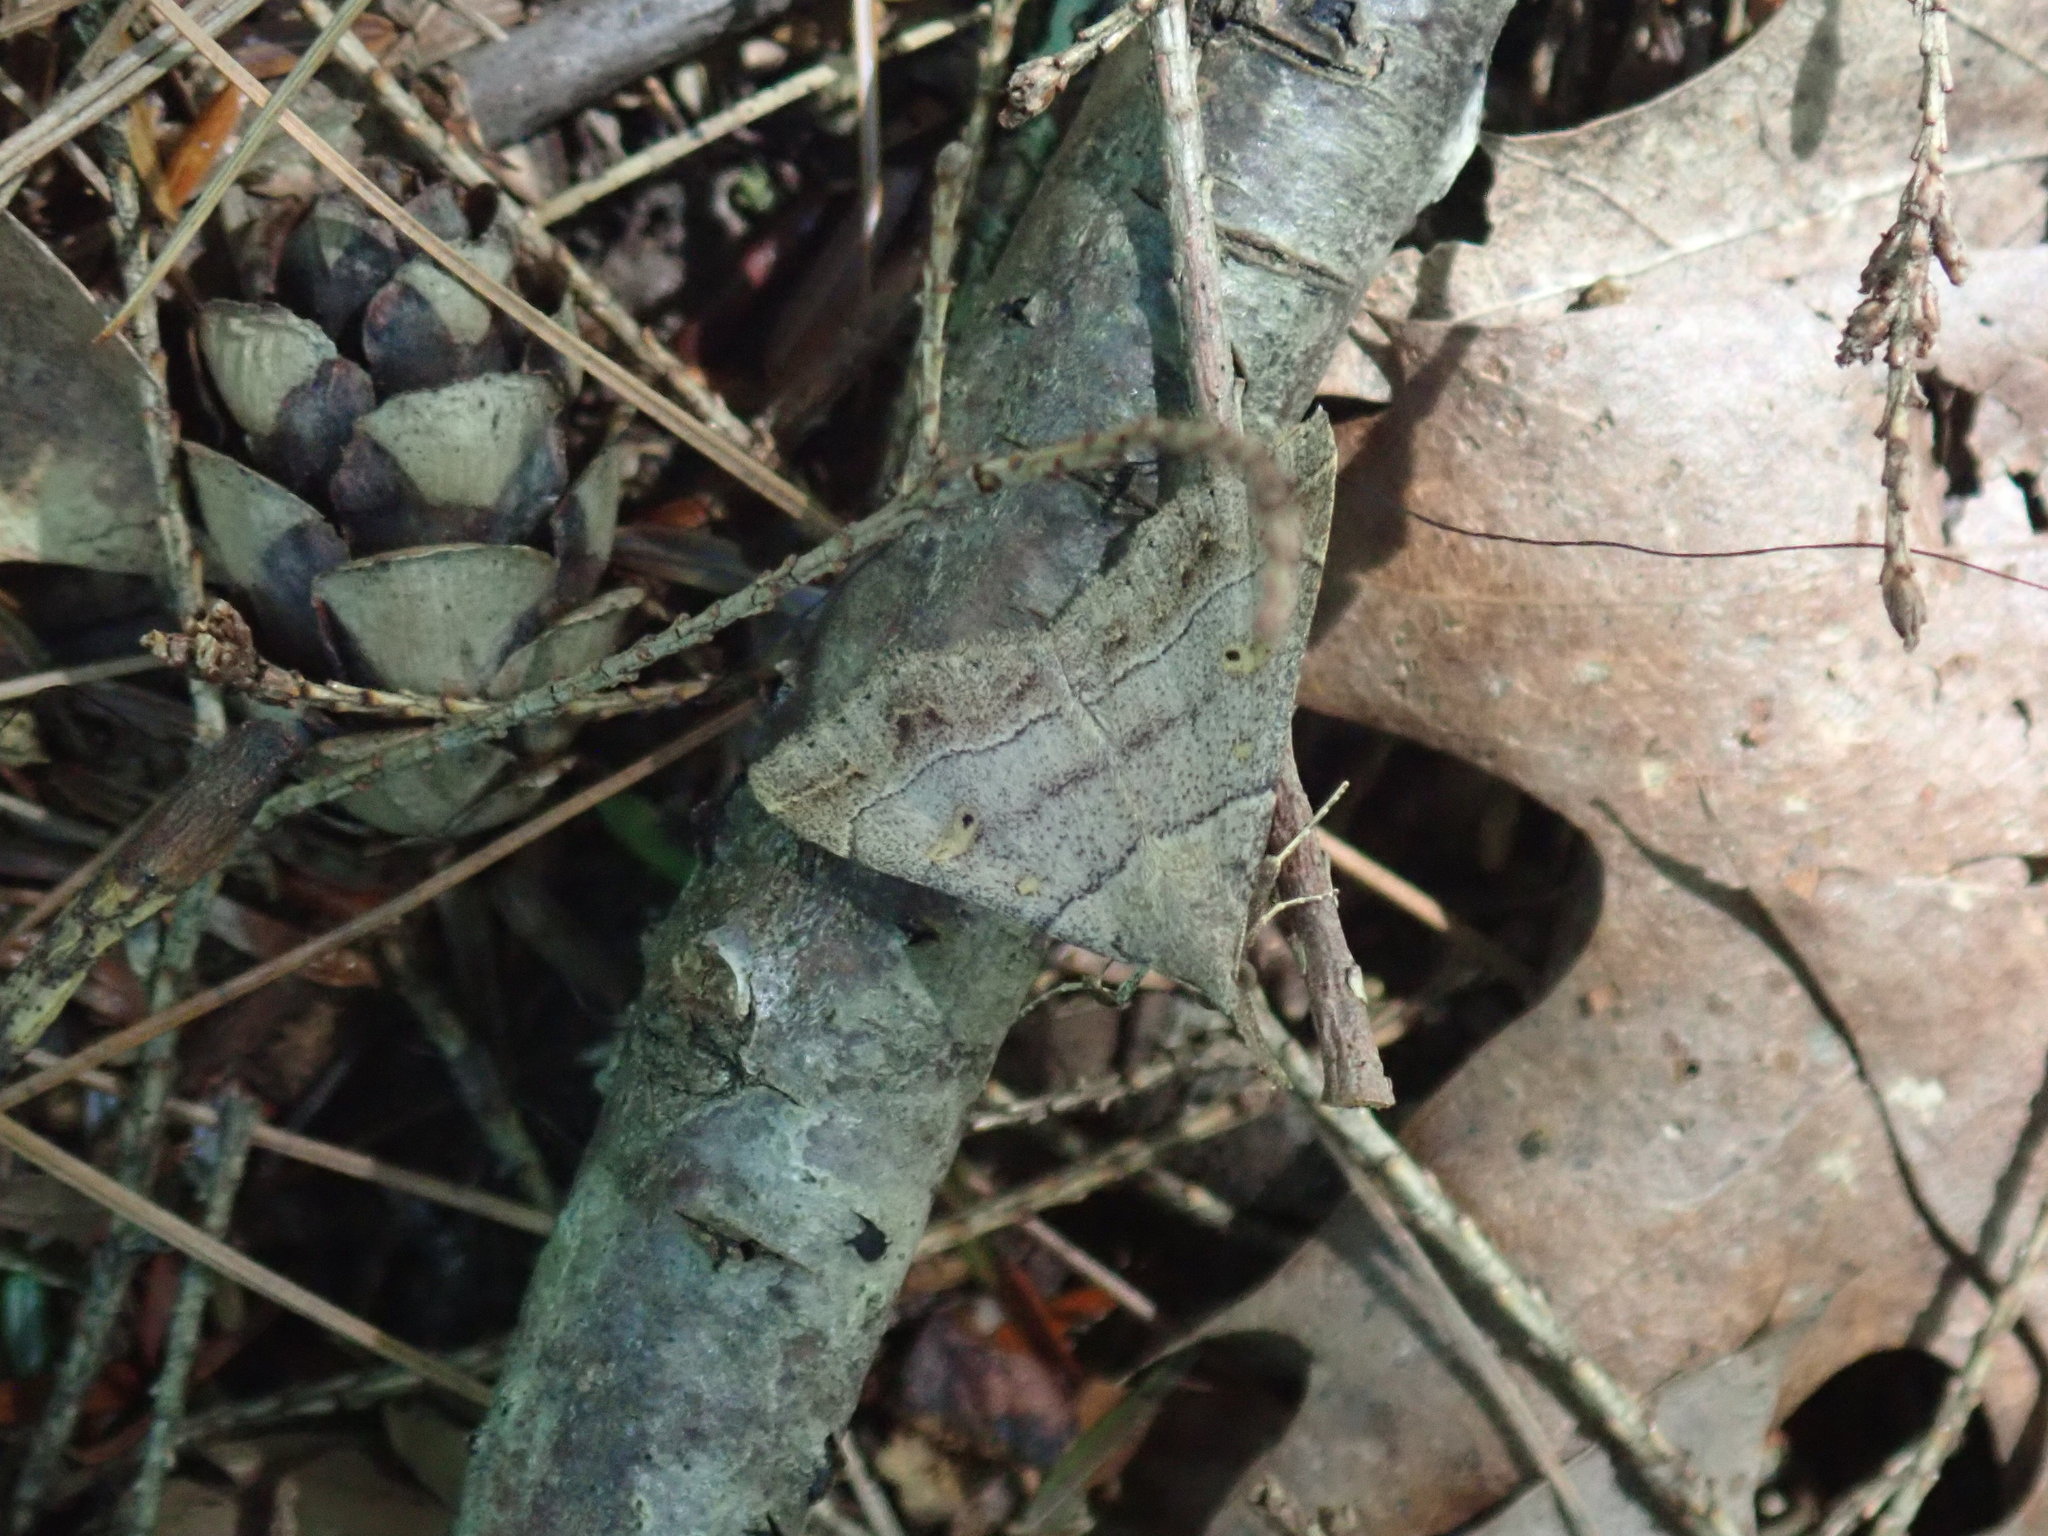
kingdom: Animalia
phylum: Arthropoda
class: Insecta
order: Lepidoptera
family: Erebidae
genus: Renia
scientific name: Renia flavipunctalis
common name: Yellow-spotted renia moth
